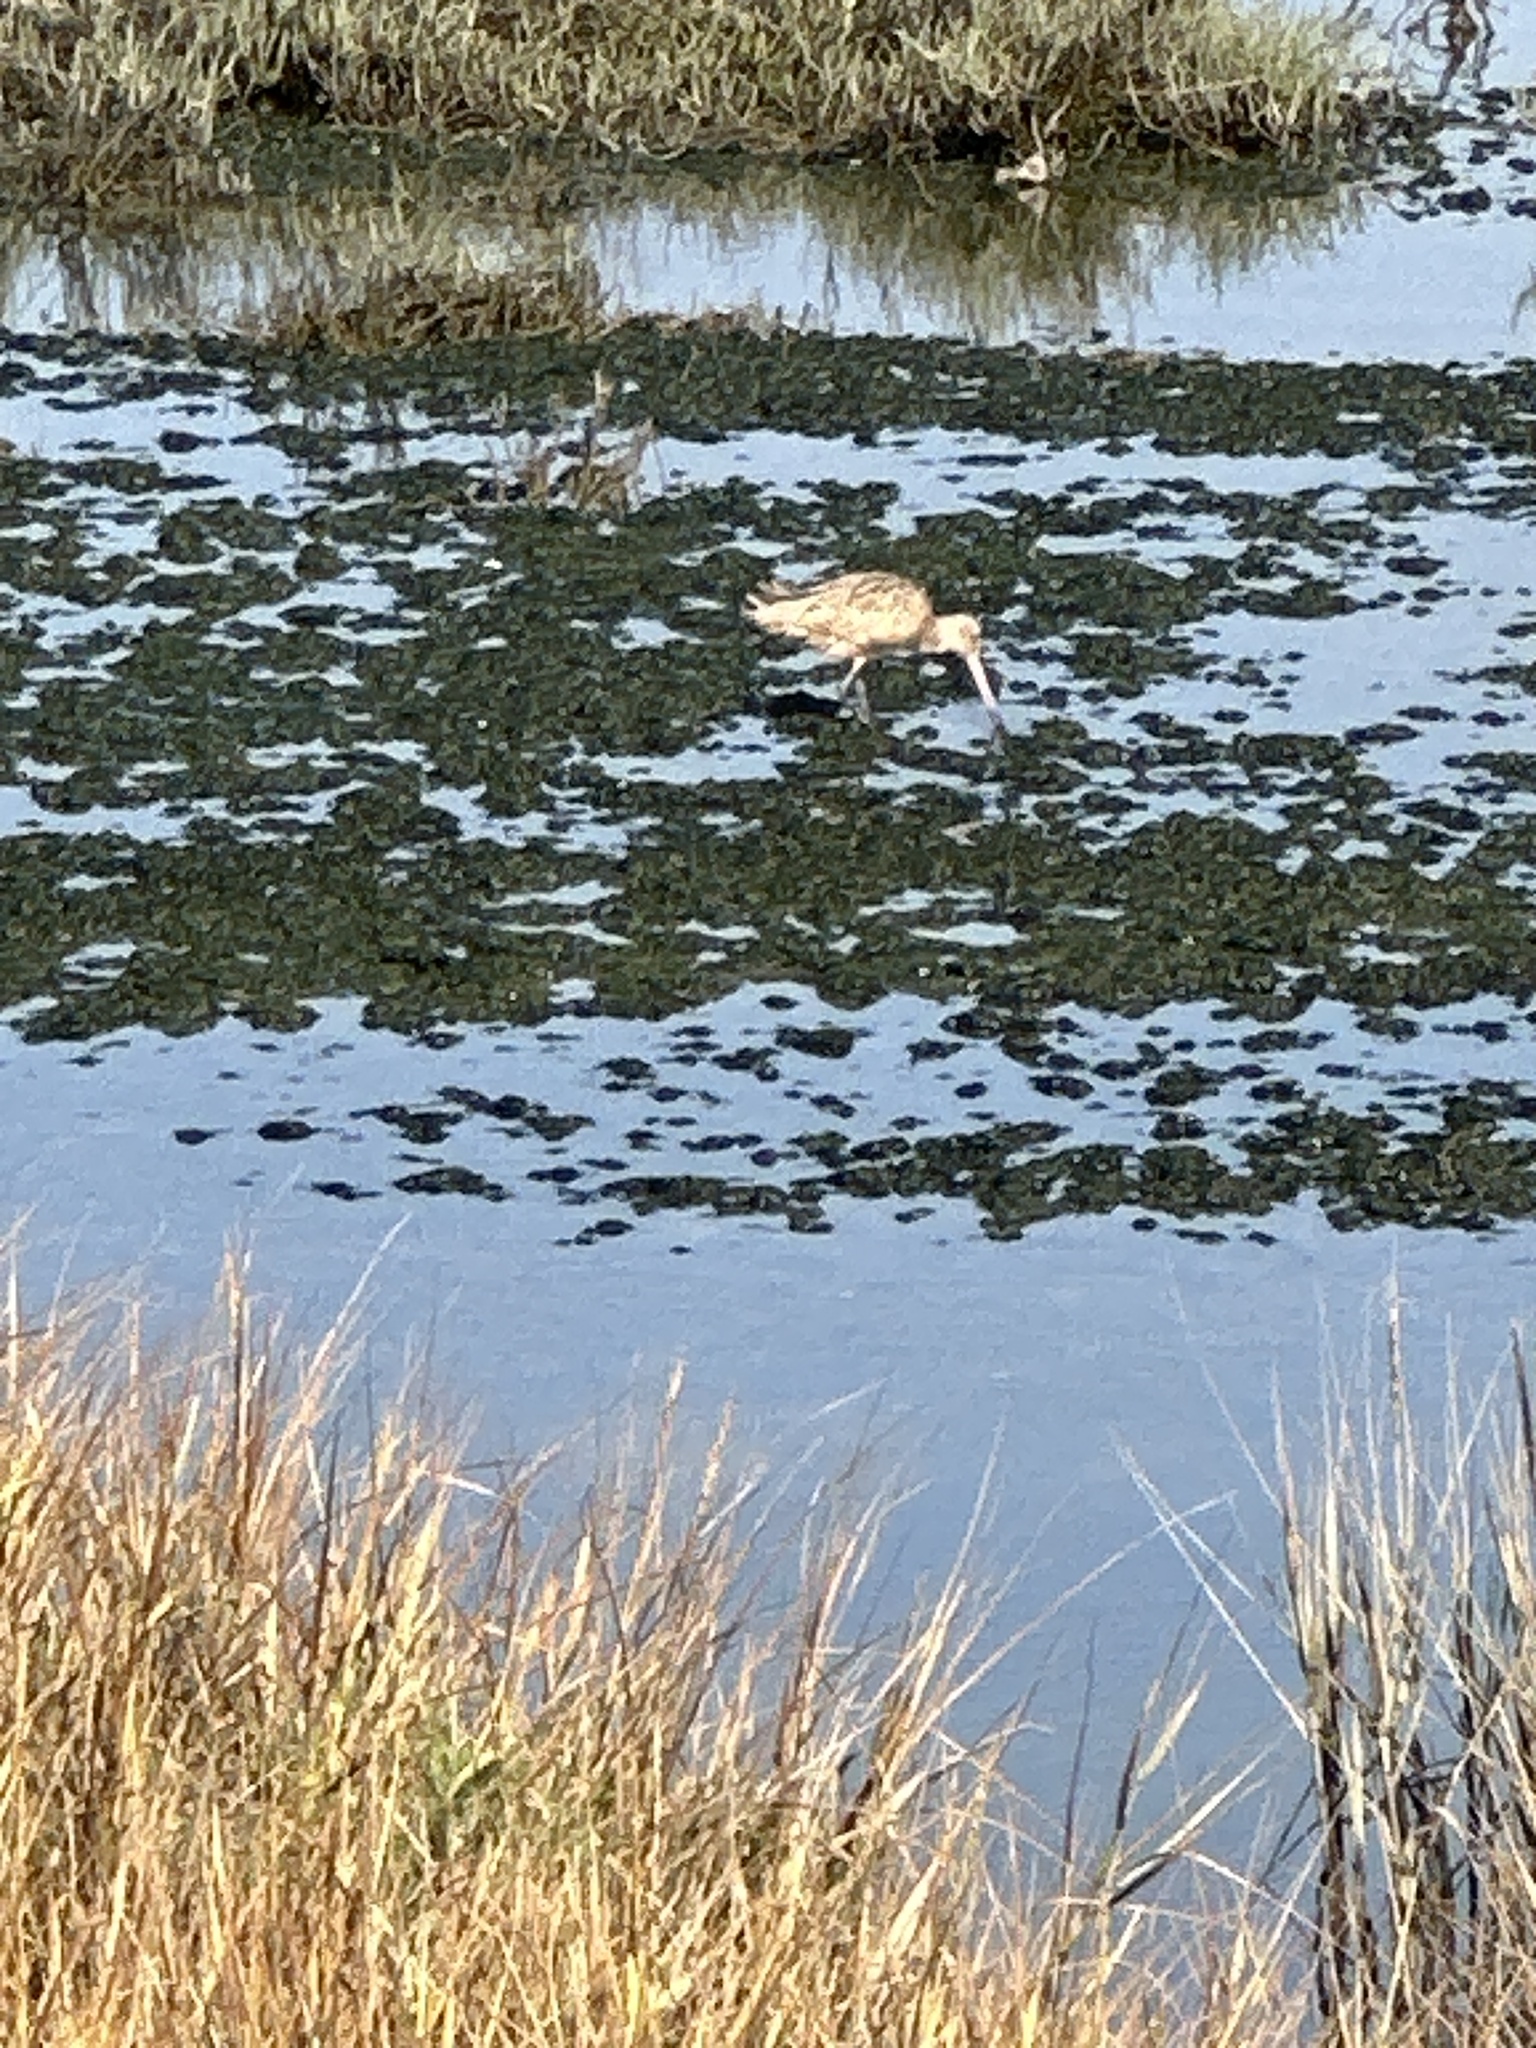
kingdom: Animalia
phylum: Chordata
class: Aves
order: Charadriiformes
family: Scolopacidae
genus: Limosa
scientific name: Limosa fedoa
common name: Marbled godwit
